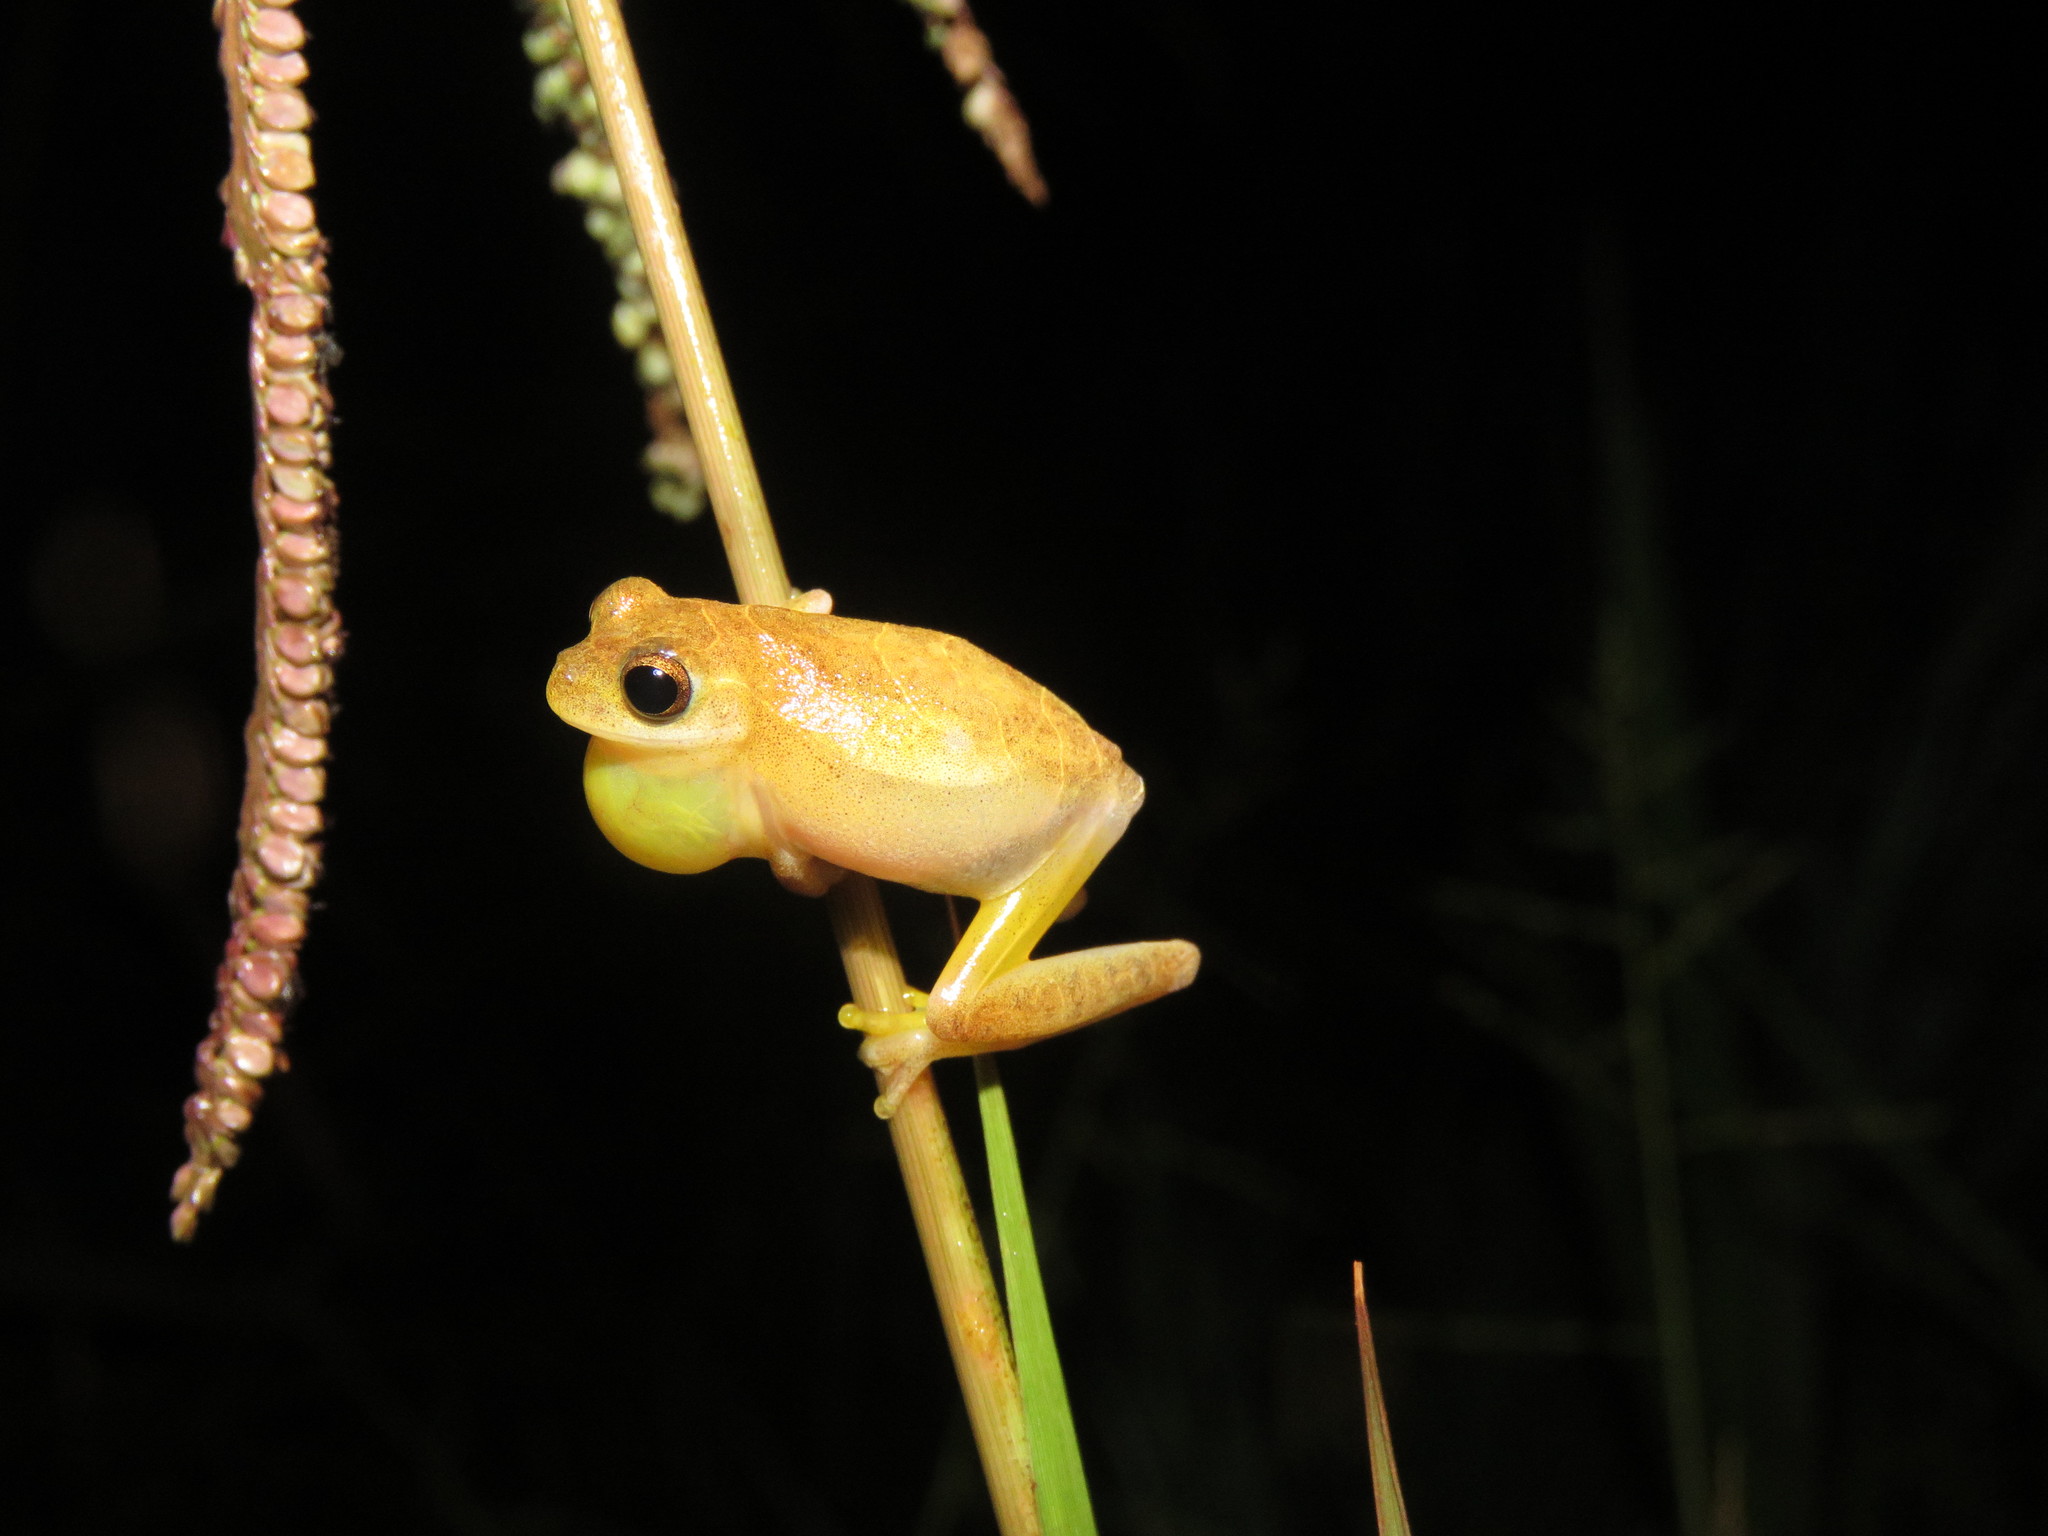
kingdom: Animalia
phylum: Chordata
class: Amphibia
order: Anura
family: Hylidae
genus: Dendropsophus
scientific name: Dendropsophus minutus
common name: Lesser treefrog
